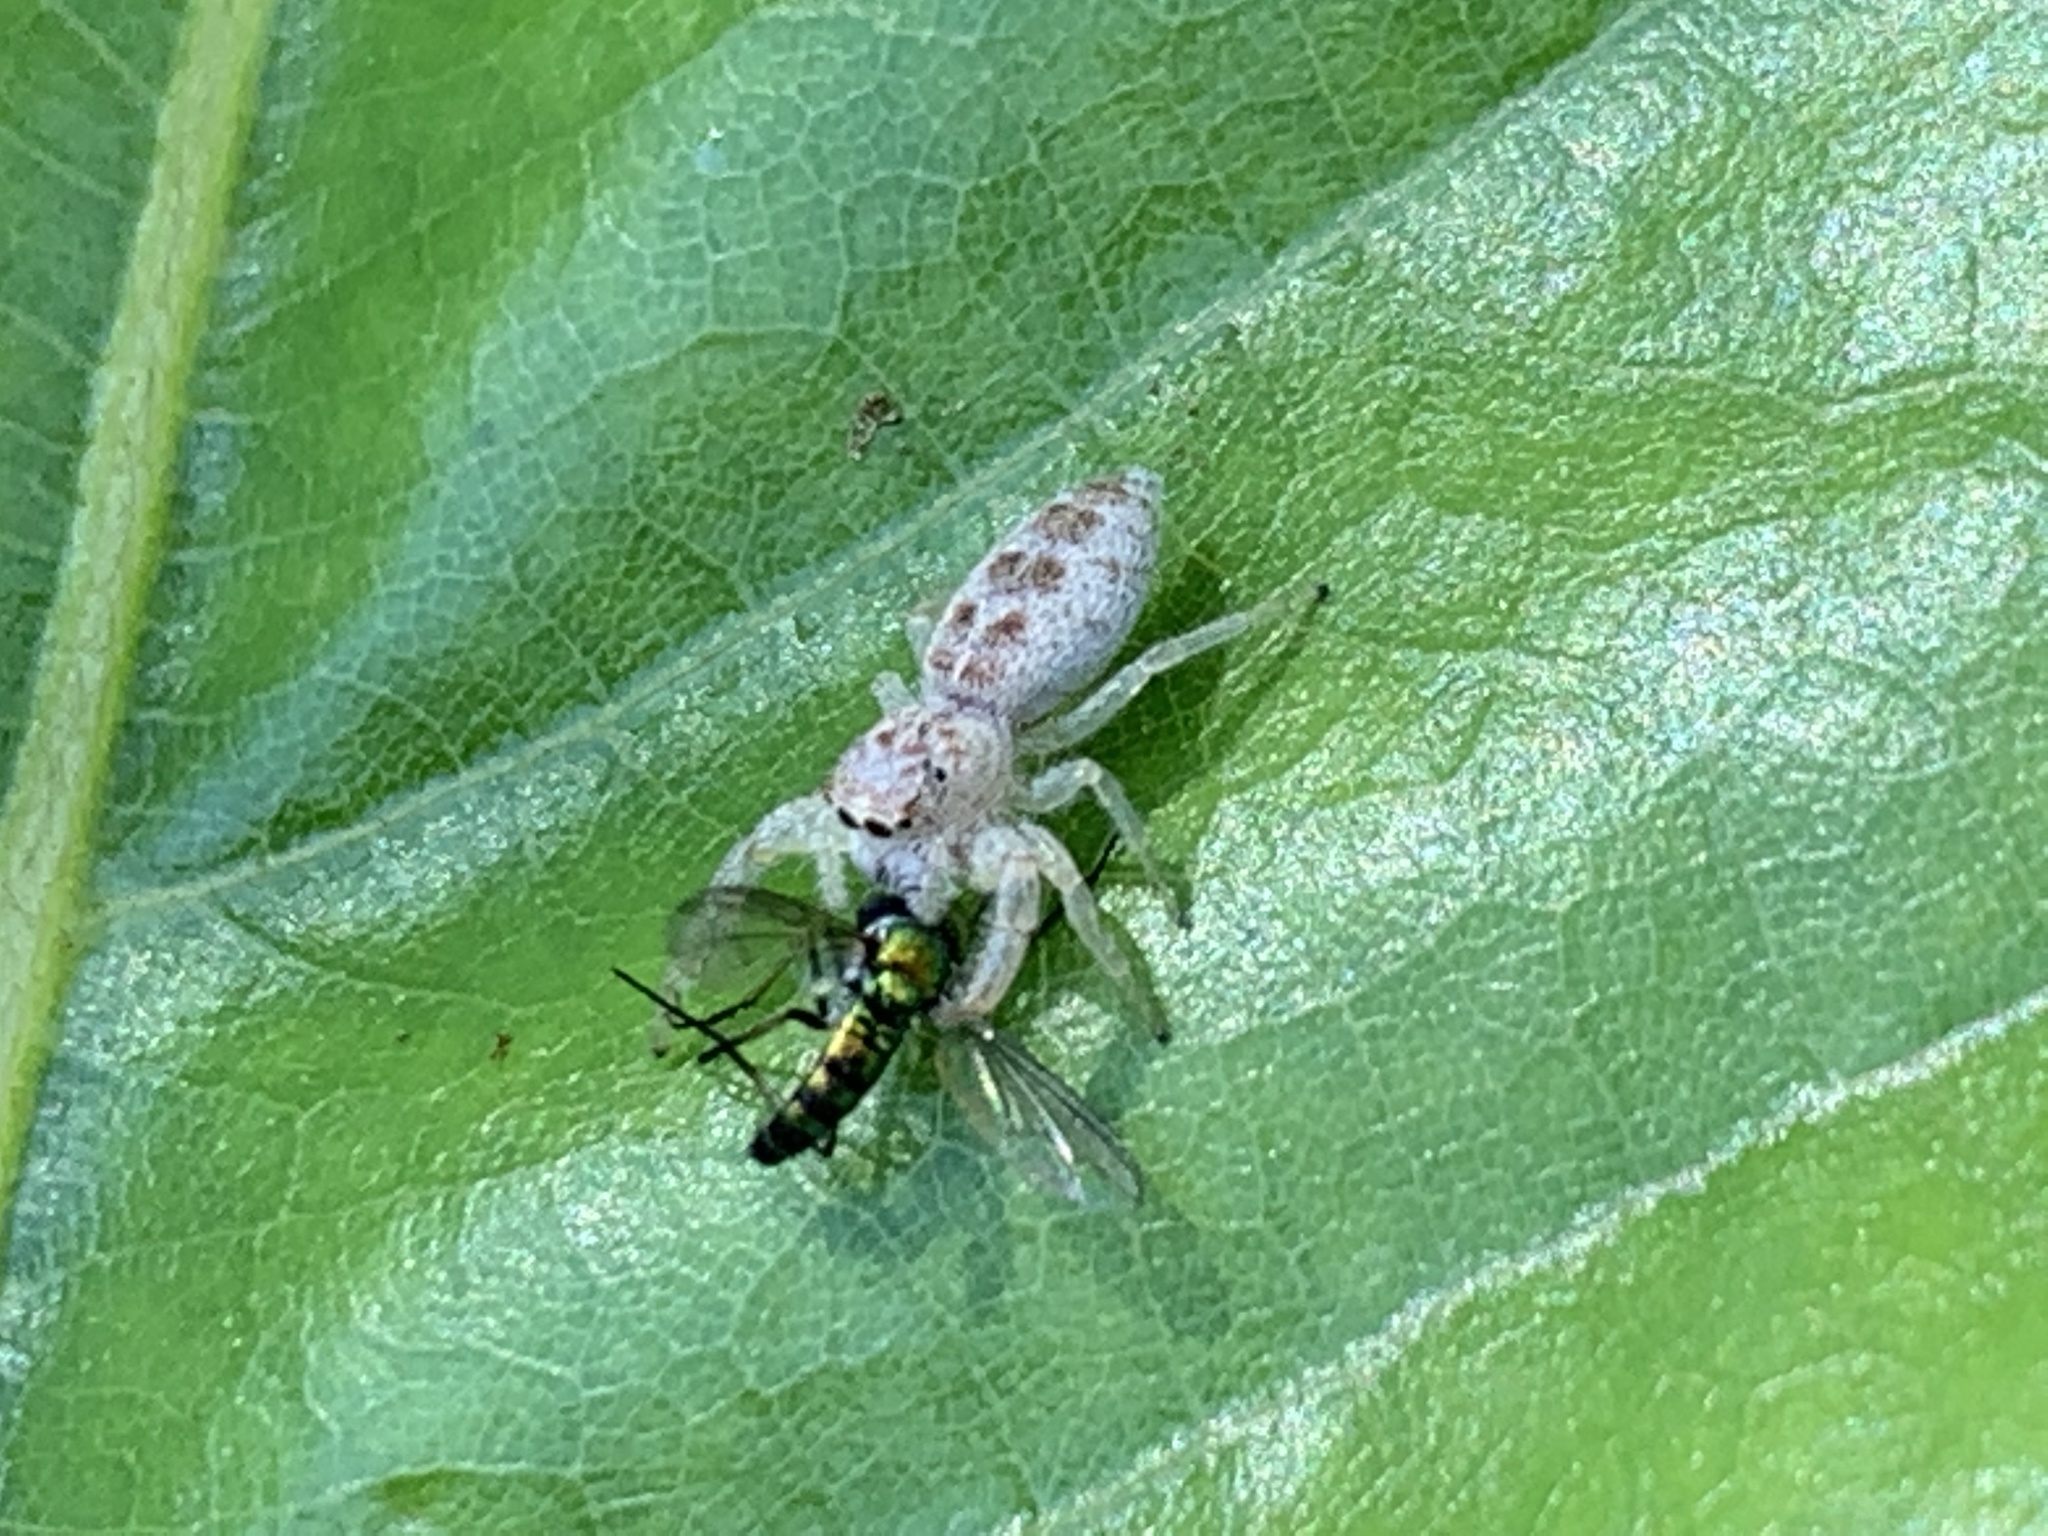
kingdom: Animalia
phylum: Arthropoda
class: Arachnida
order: Araneae
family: Salticidae
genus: Hentzia
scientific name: Hentzia mitrata
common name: White-jawed jumping spider
